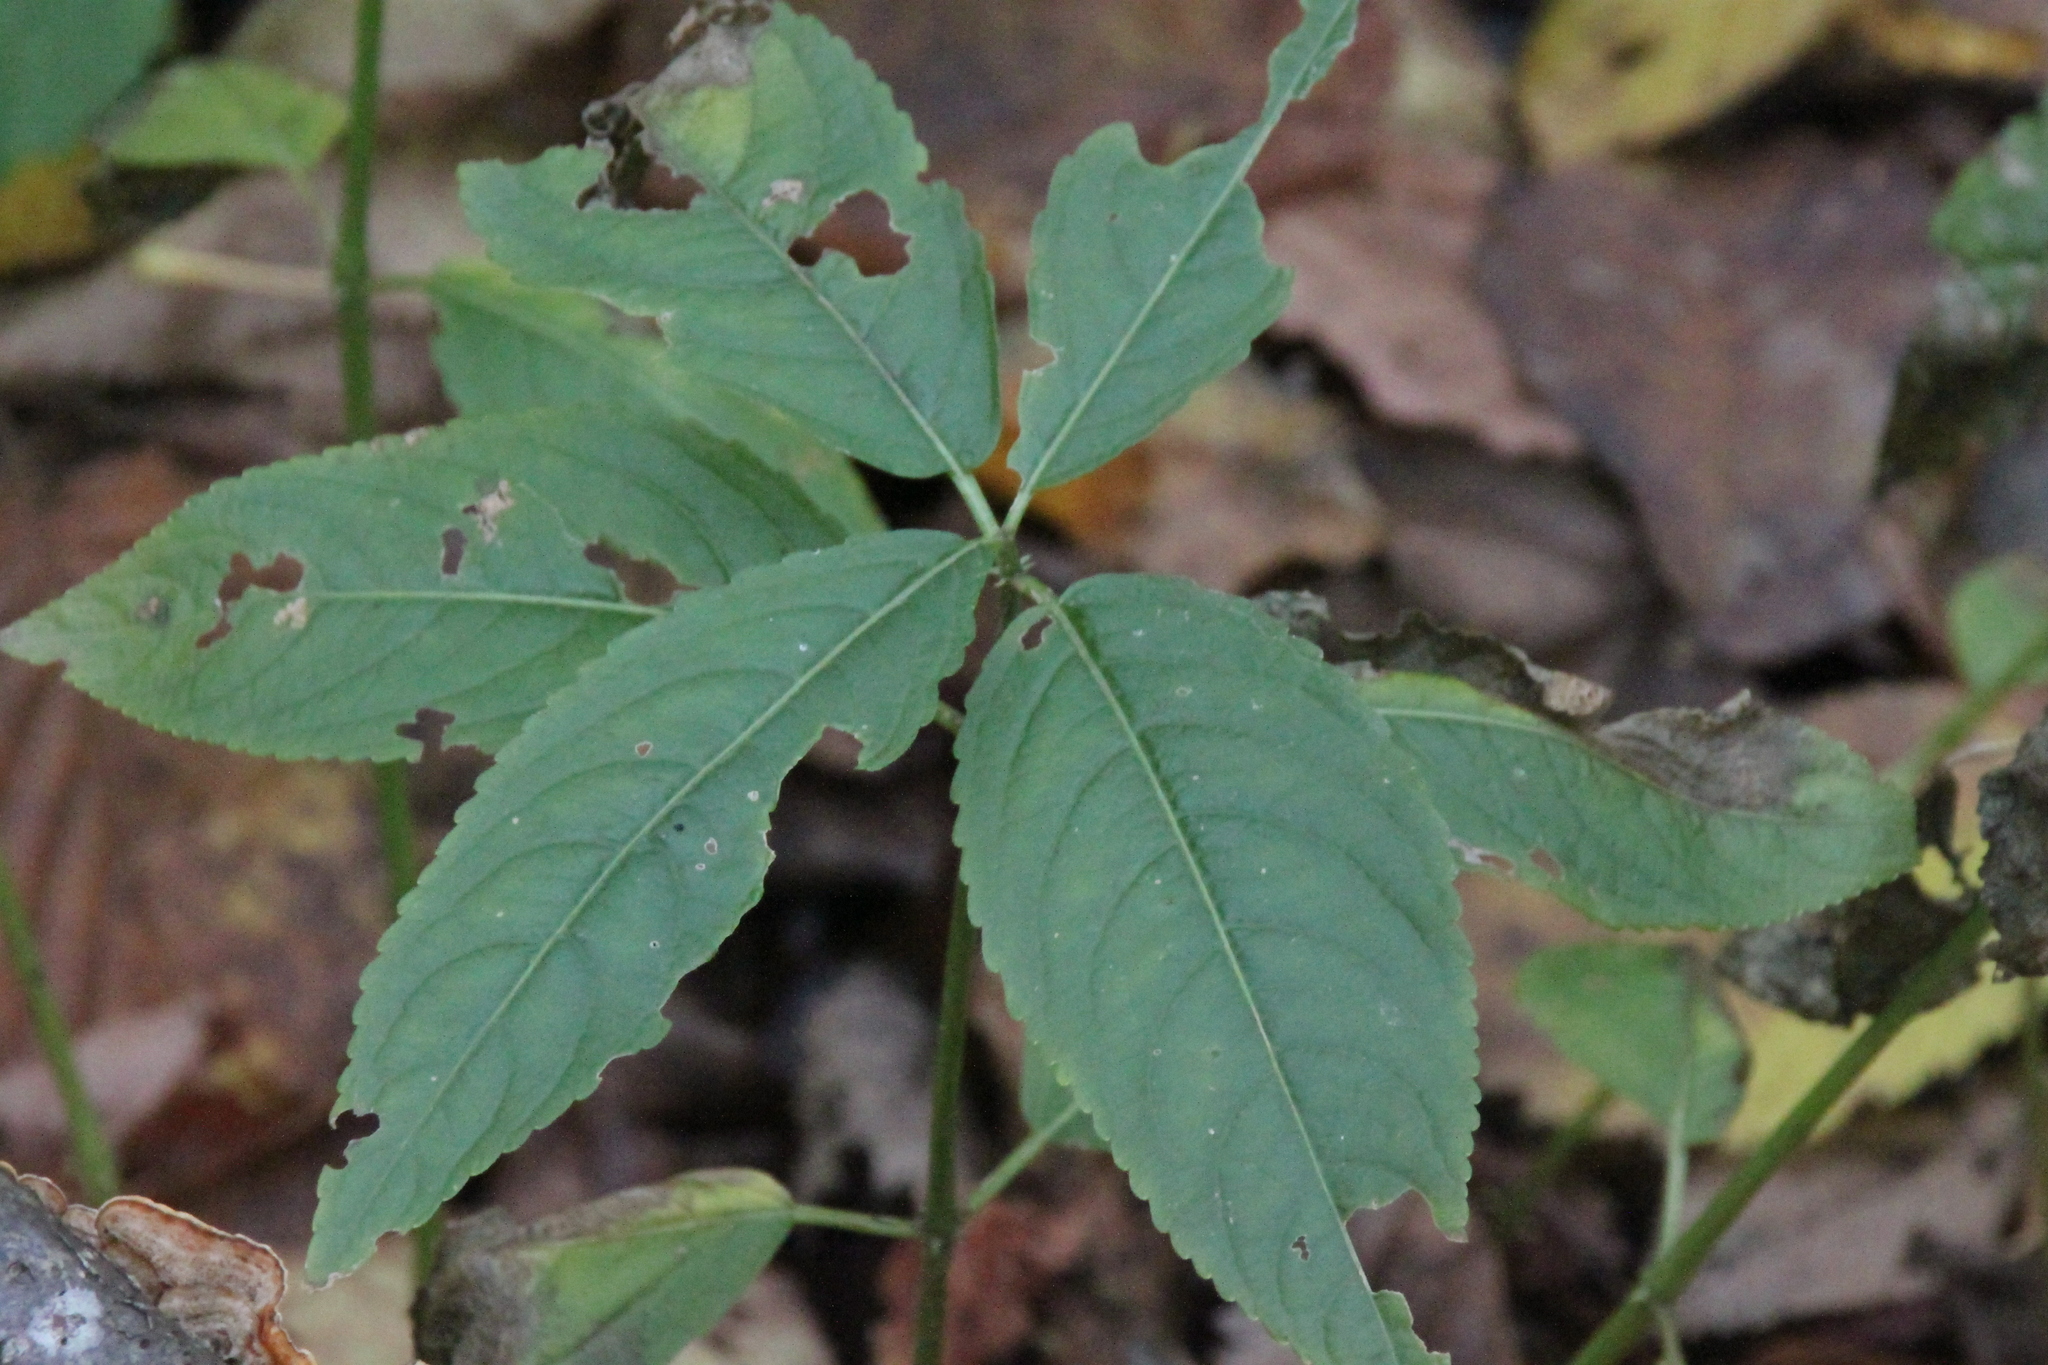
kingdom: Plantae
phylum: Tracheophyta
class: Magnoliopsida
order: Malpighiales
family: Euphorbiaceae
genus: Mercurialis
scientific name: Mercurialis perennis
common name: Dog mercury
